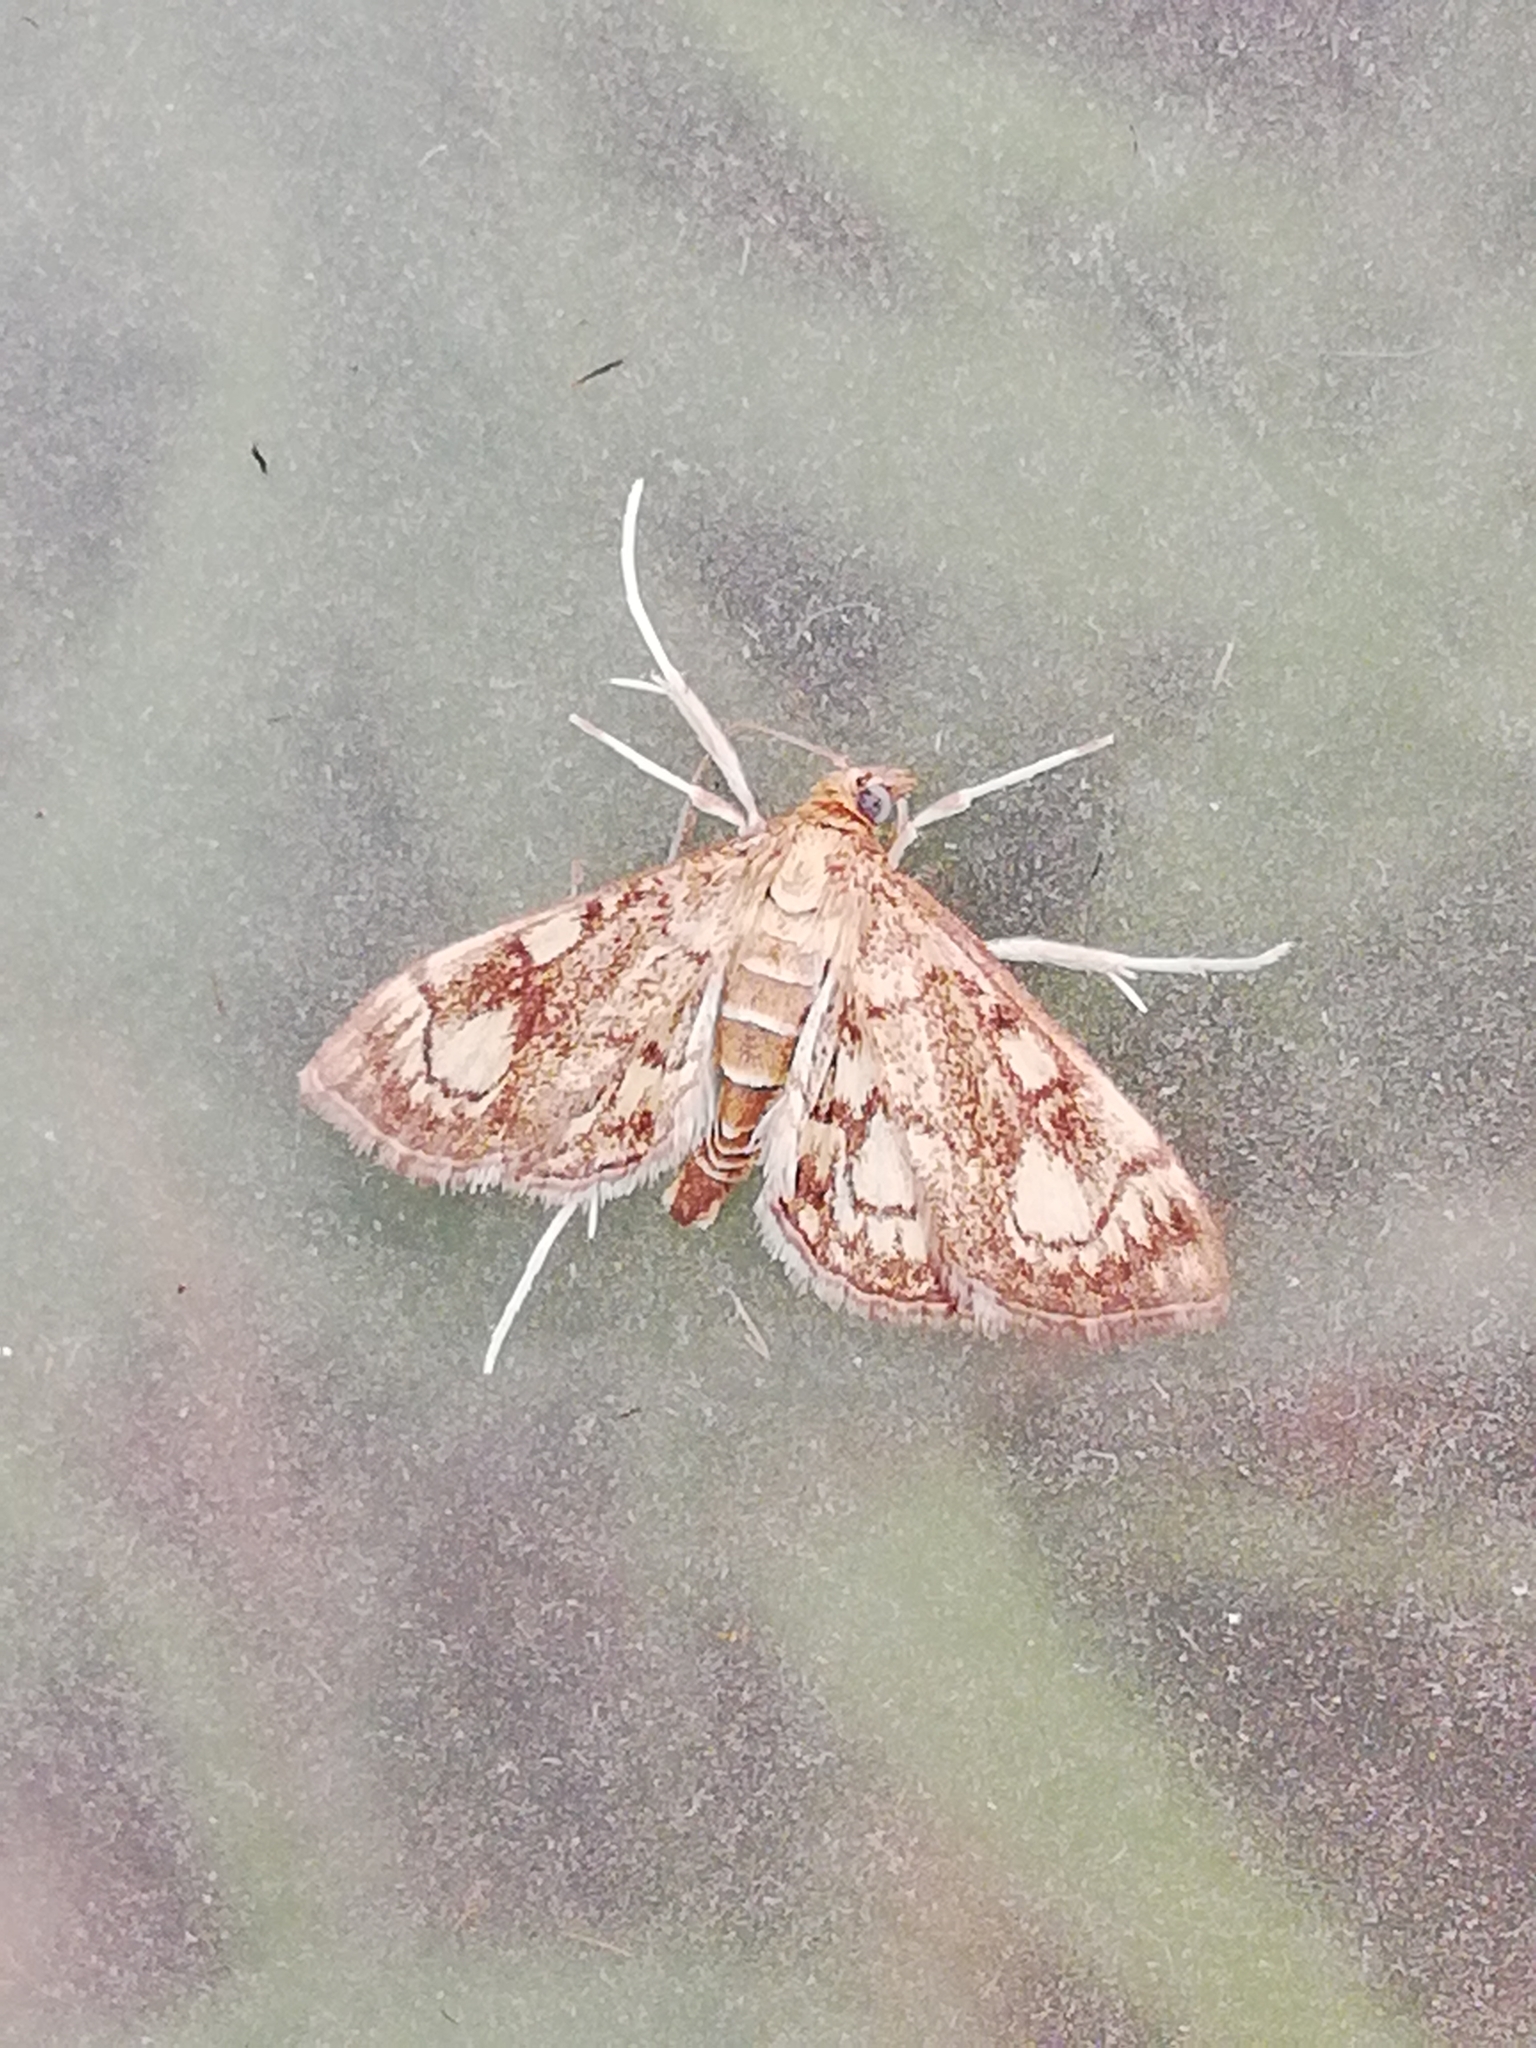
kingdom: Animalia
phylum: Arthropoda
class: Insecta
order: Lepidoptera
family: Crambidae
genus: Anania
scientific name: Anania stachydalis
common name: Woundwort pearl
